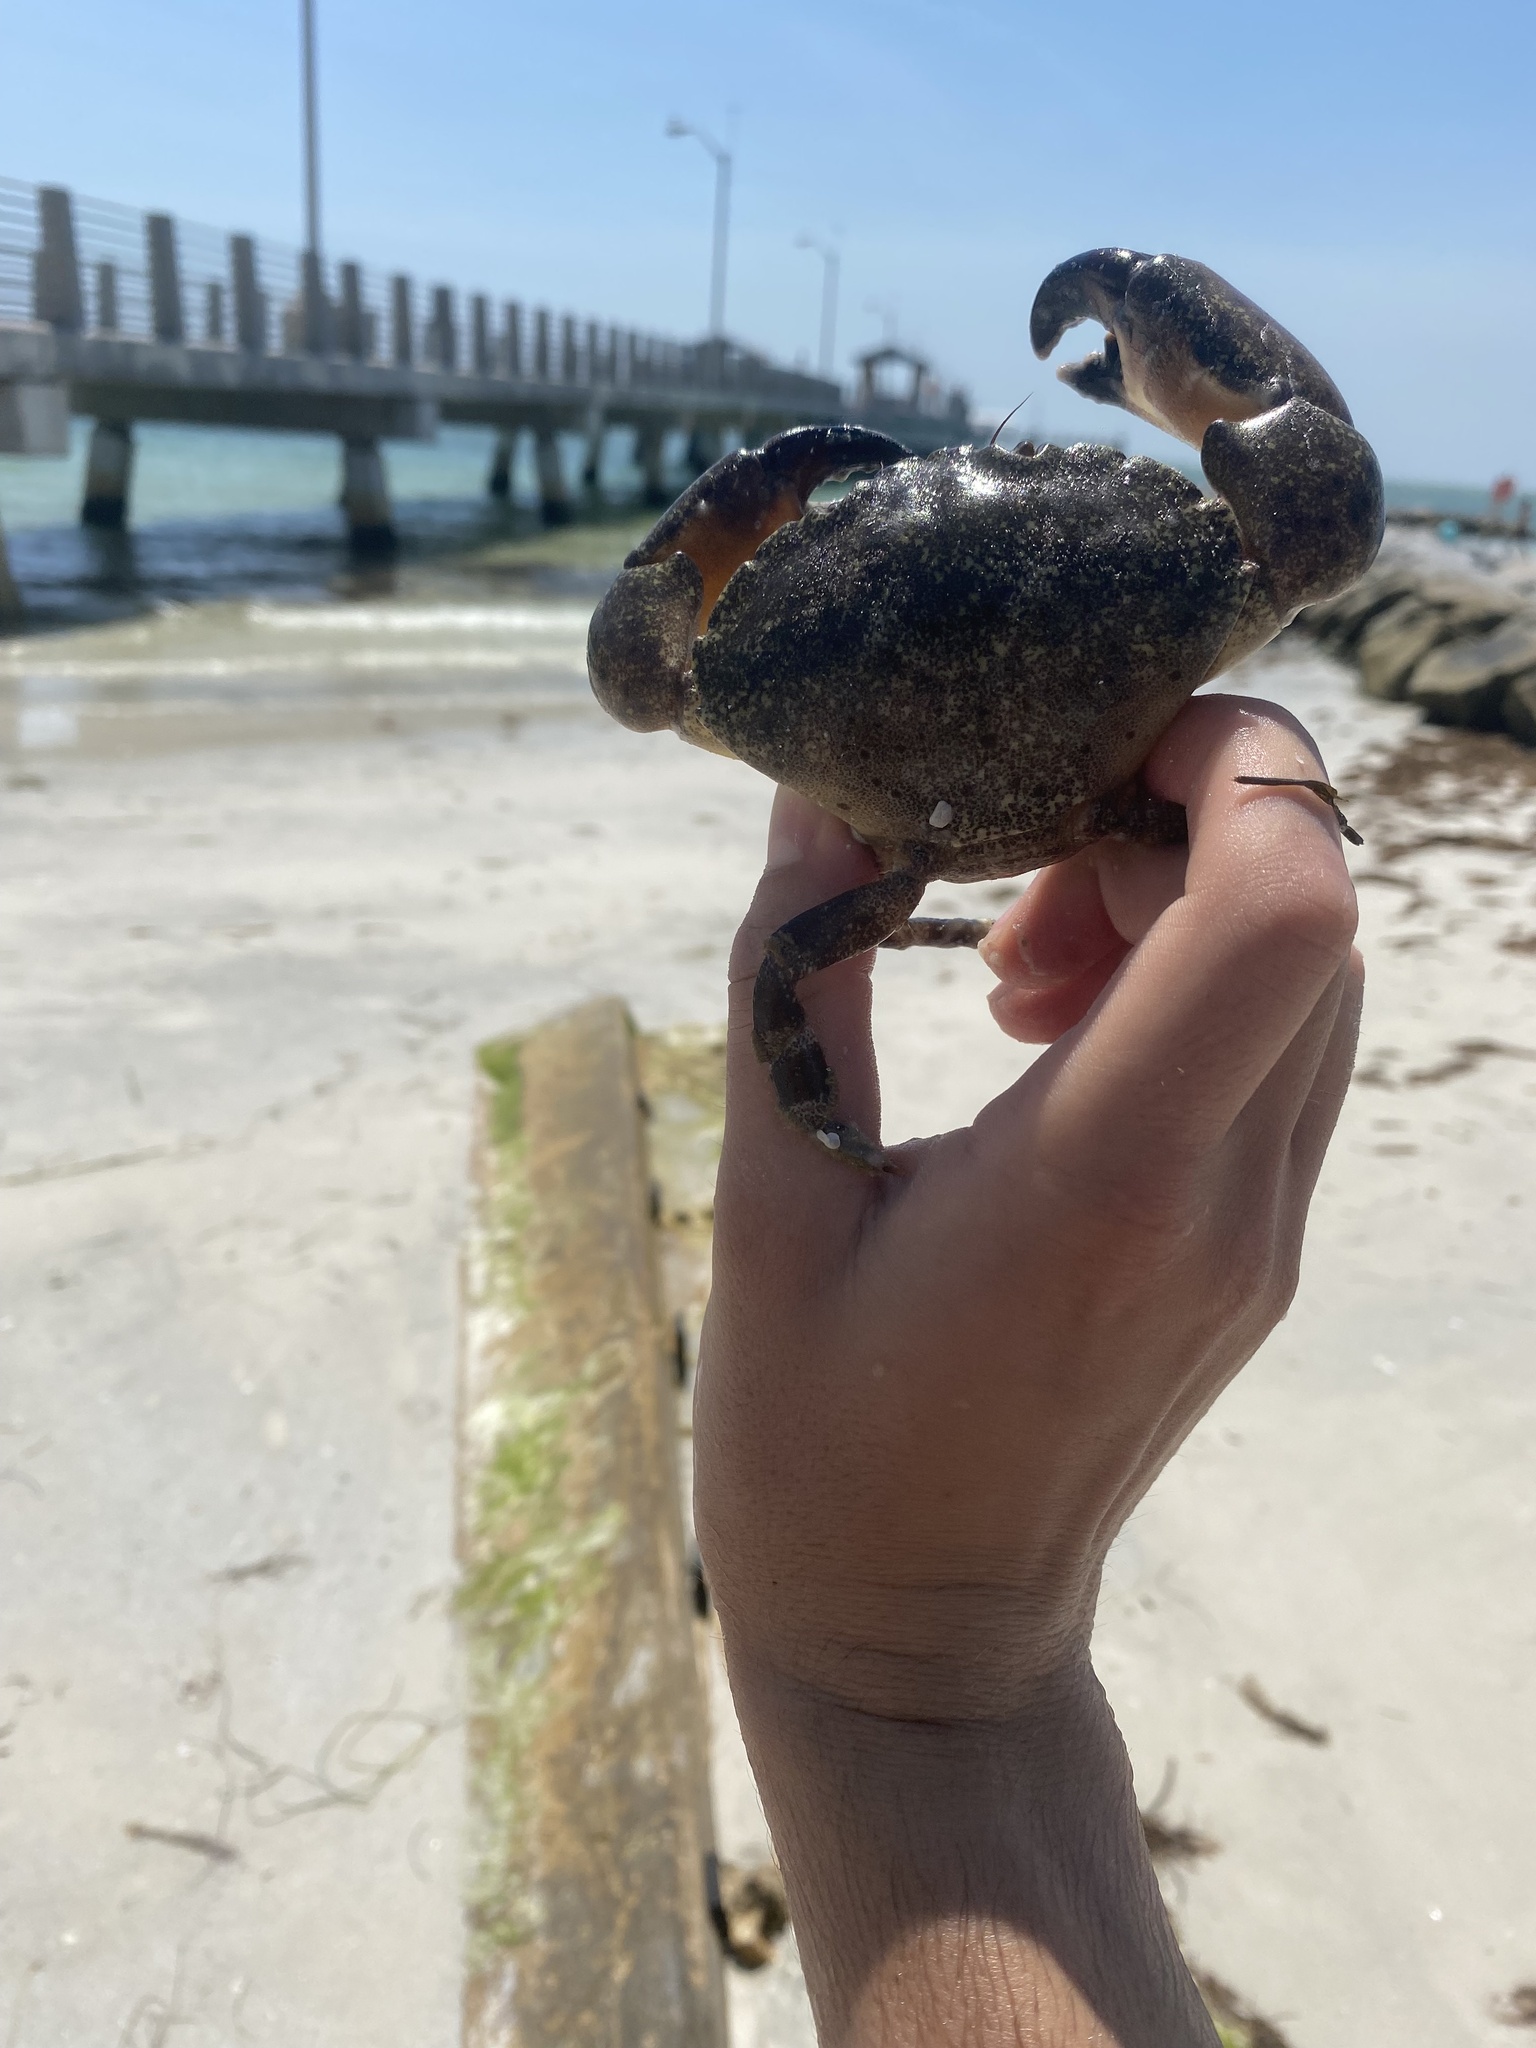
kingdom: Animalia
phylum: Arthropoda
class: Malacostraca
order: Decapoda
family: Menippidae
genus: Menippe
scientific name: Menippe mercenaria
